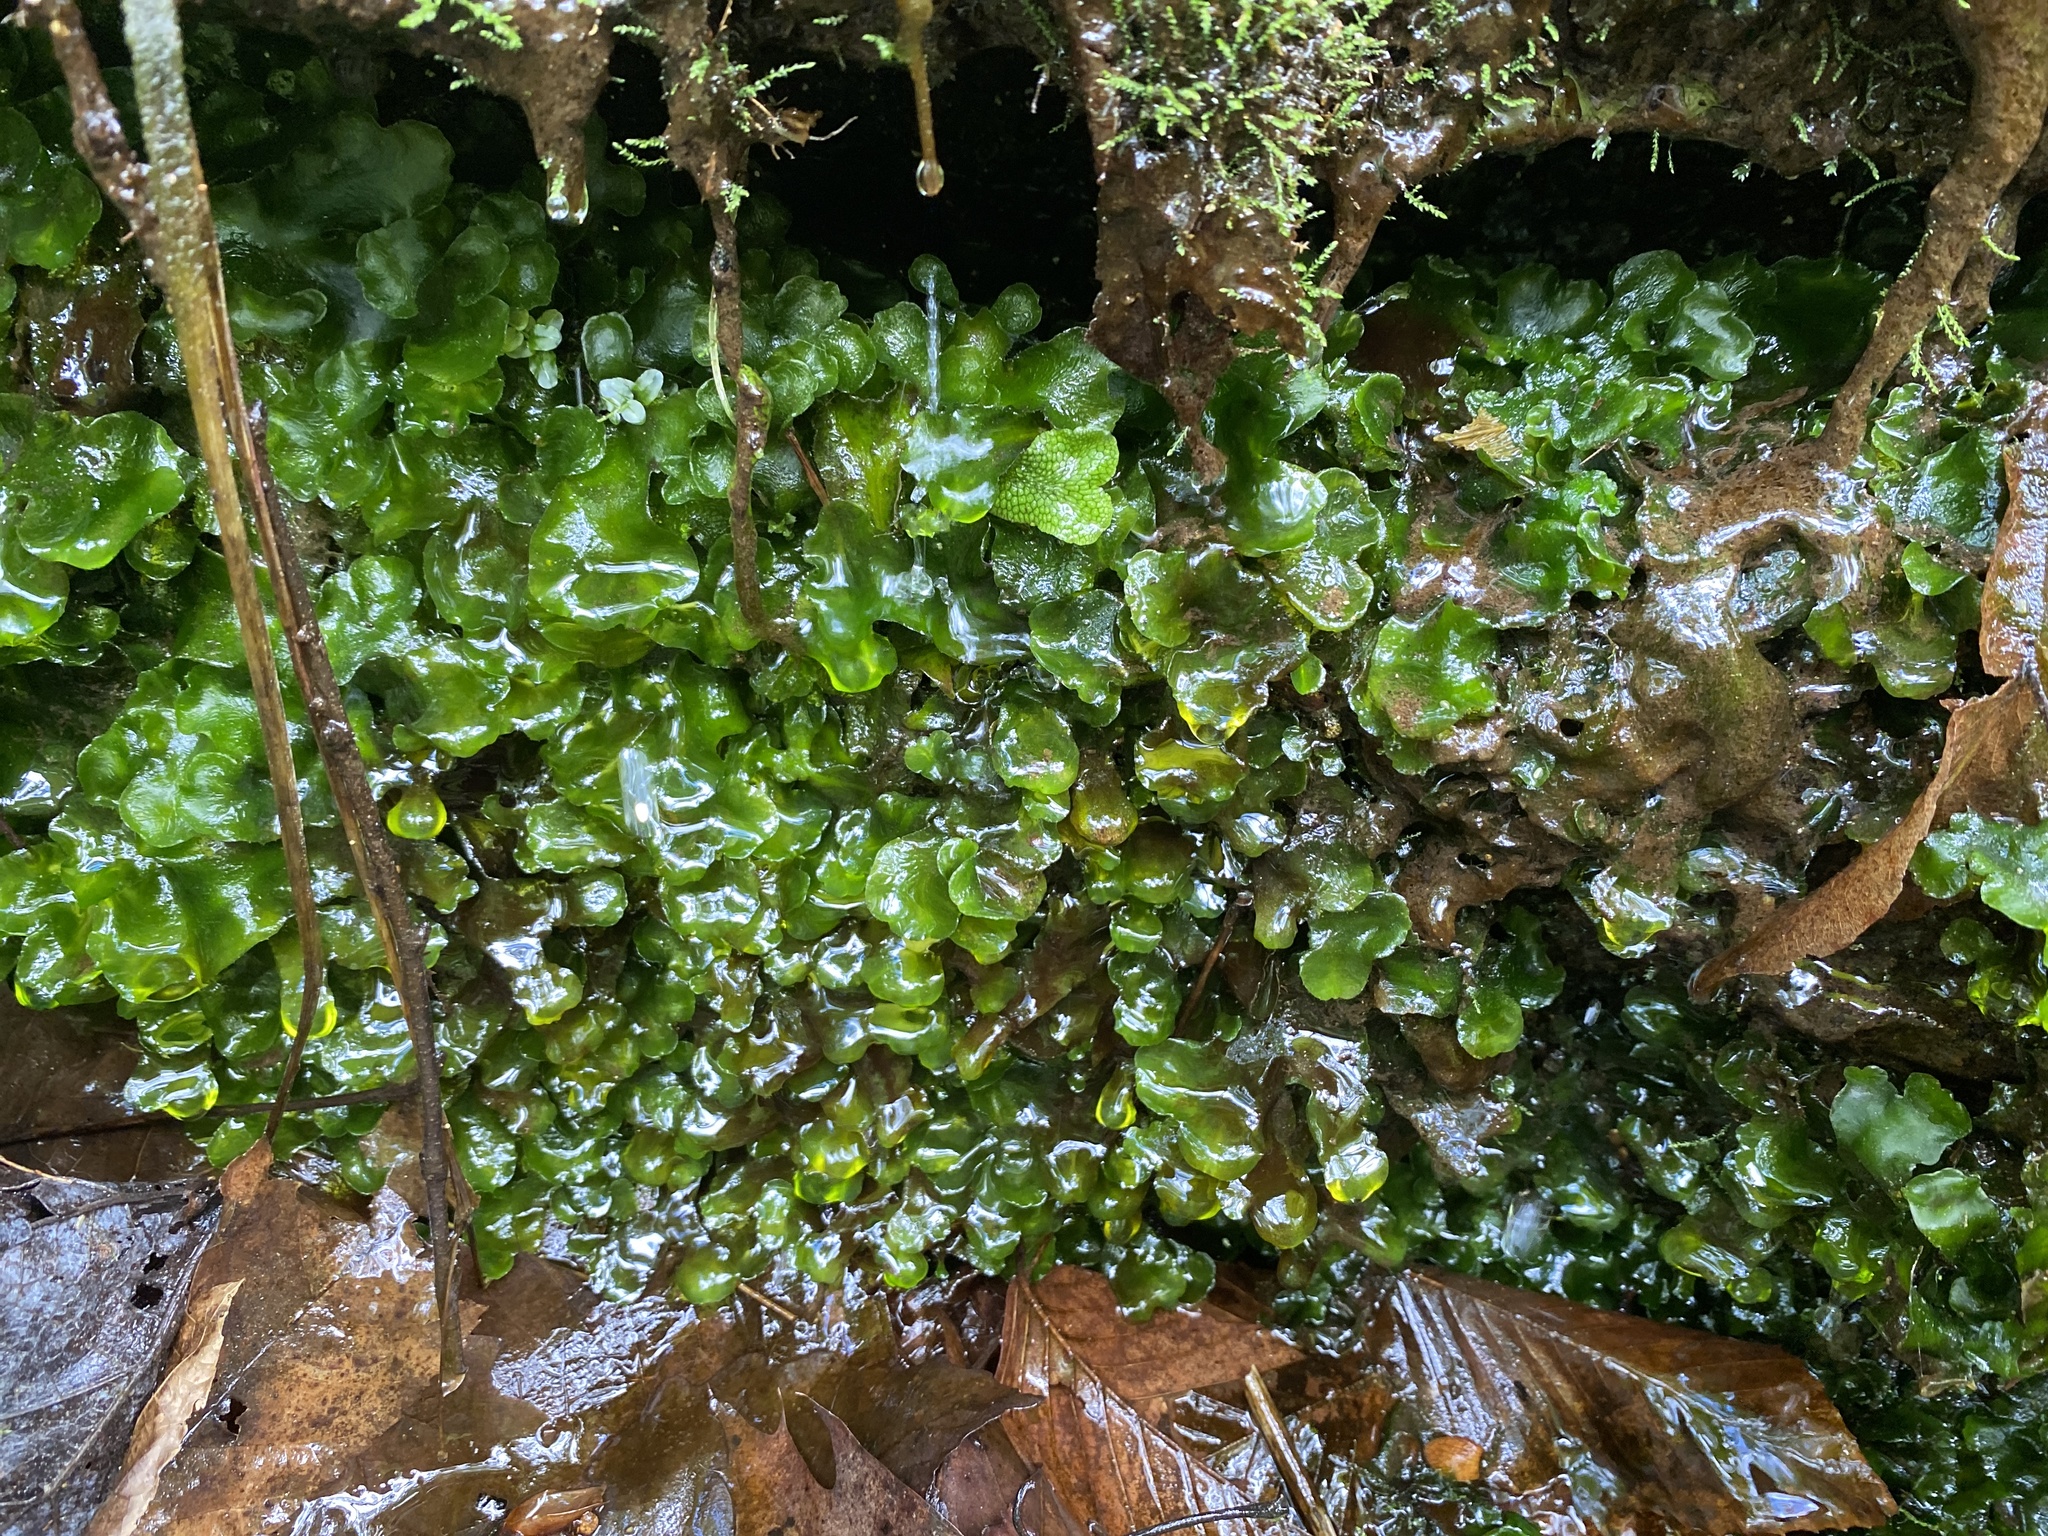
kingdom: Plantae
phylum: Marchantiophyta
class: Marchantiopsida
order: Marchantiales
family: Dumortieraceae
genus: Dumortiera
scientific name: Dumortiera hirsuta
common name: Dumortier's liverwort
